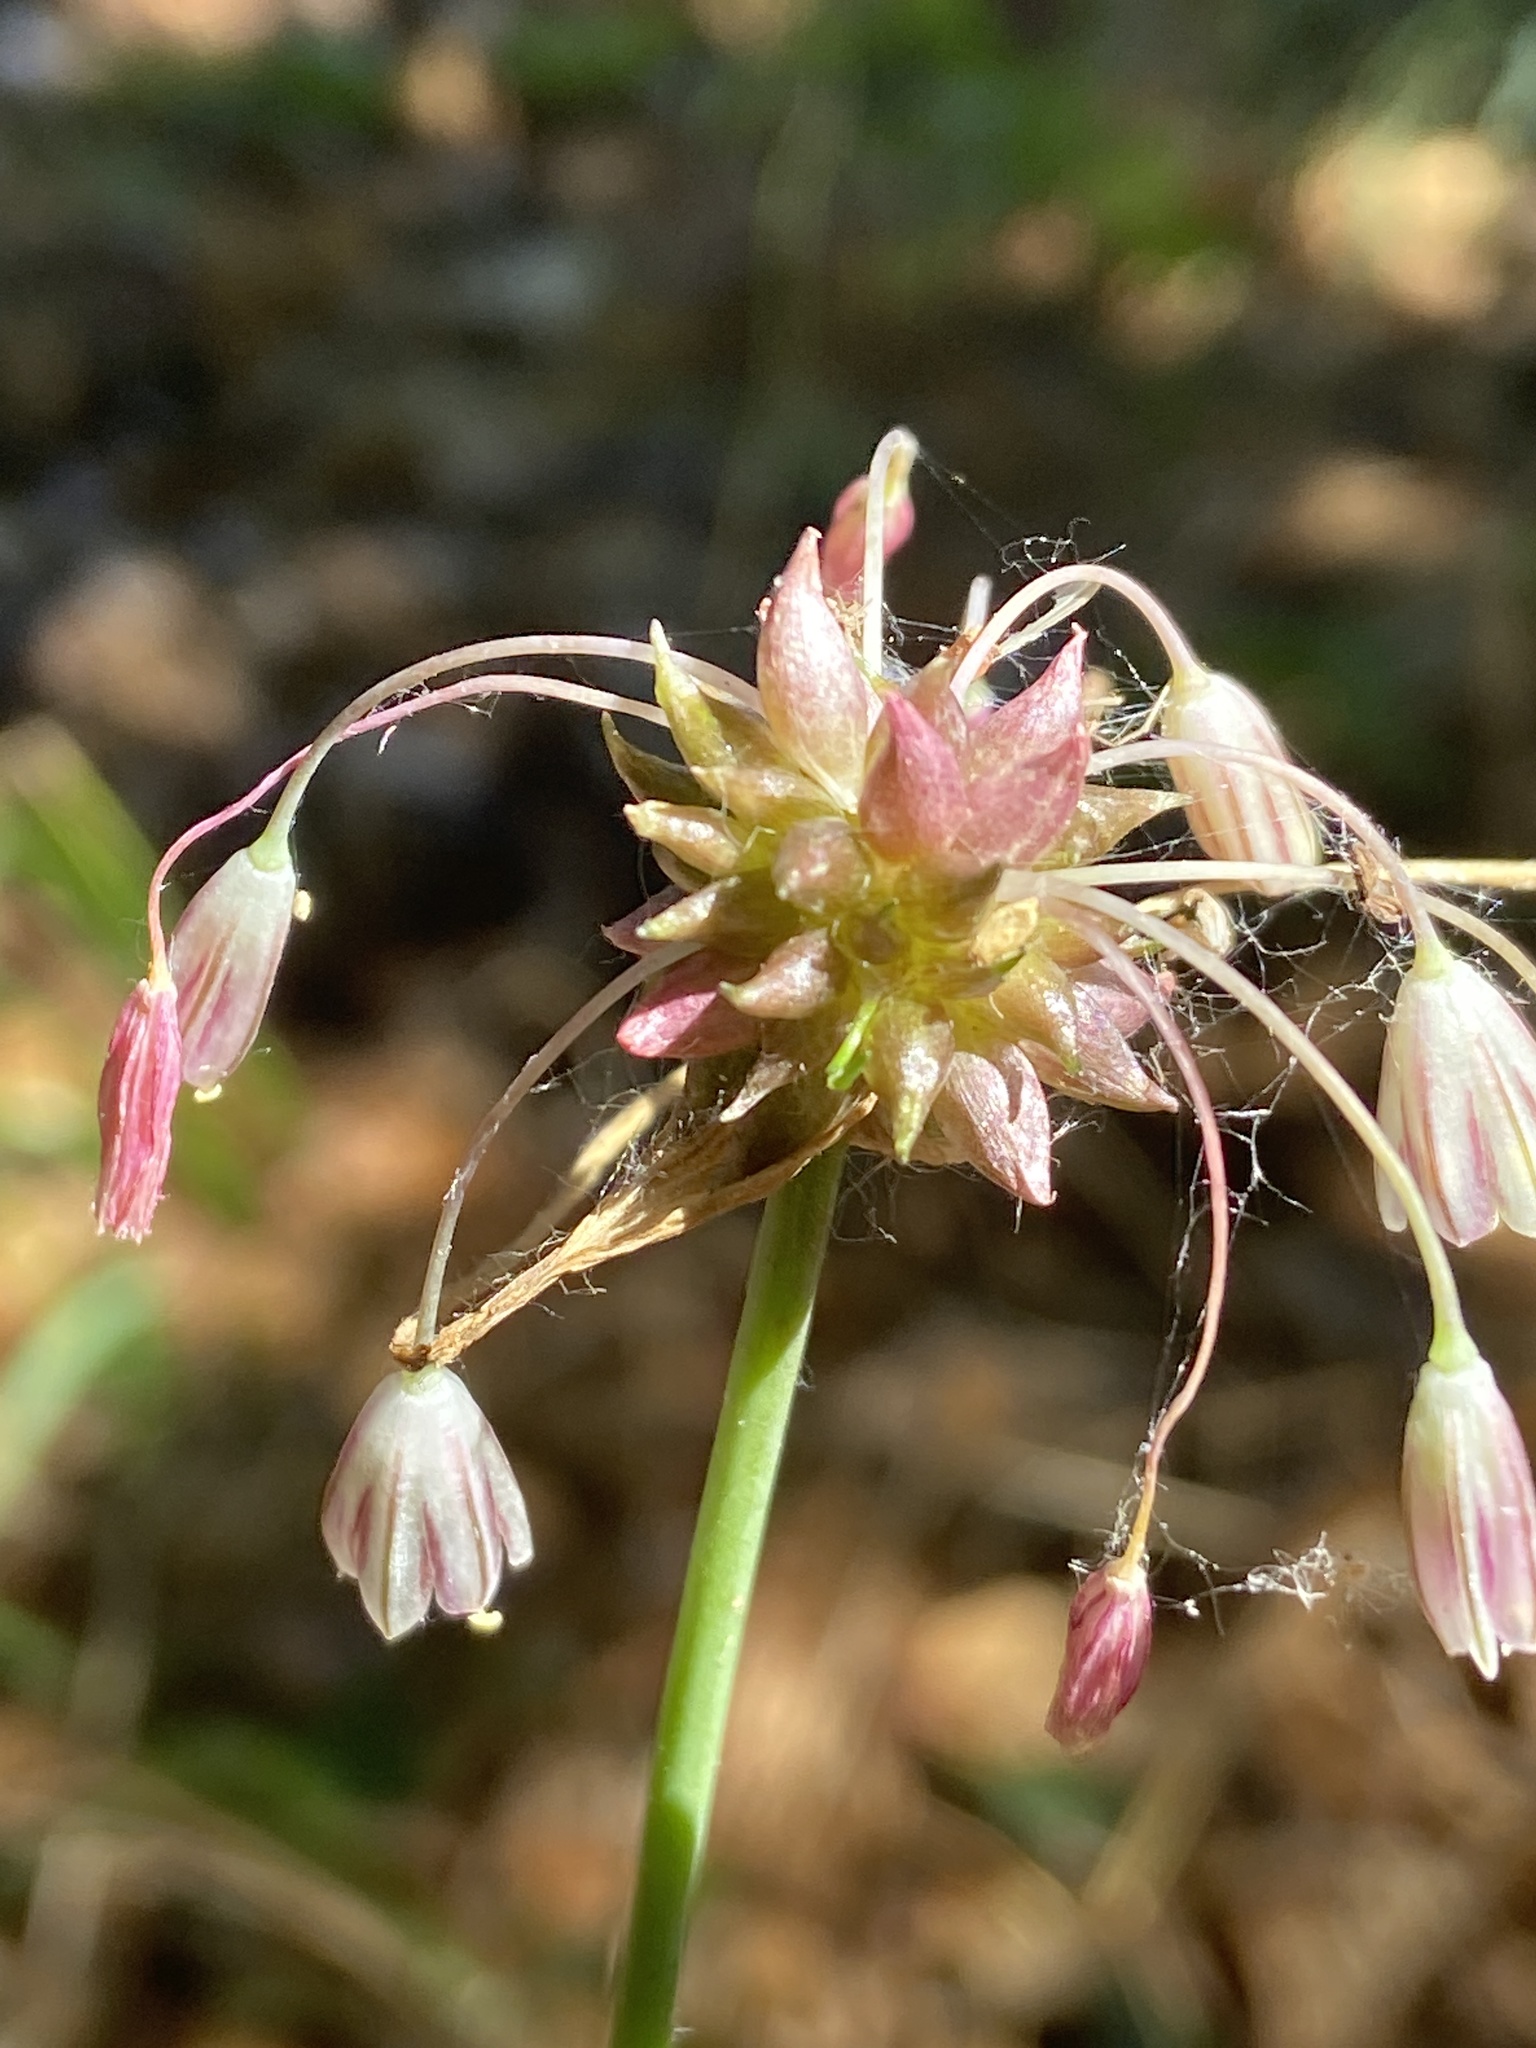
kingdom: Plantae
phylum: Tracheophyta
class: Liliopsida
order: Asparagales
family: Amaryllidaceae
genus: Allium
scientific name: Allium oleraceum
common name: Field garlic
